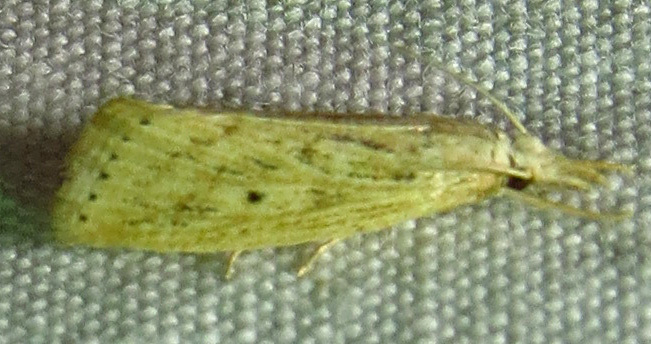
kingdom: Animalia
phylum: Arthropoda
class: Insecta
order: Lepidoptera
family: Crambidae
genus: Diatraea
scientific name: Diatraea lisetta
